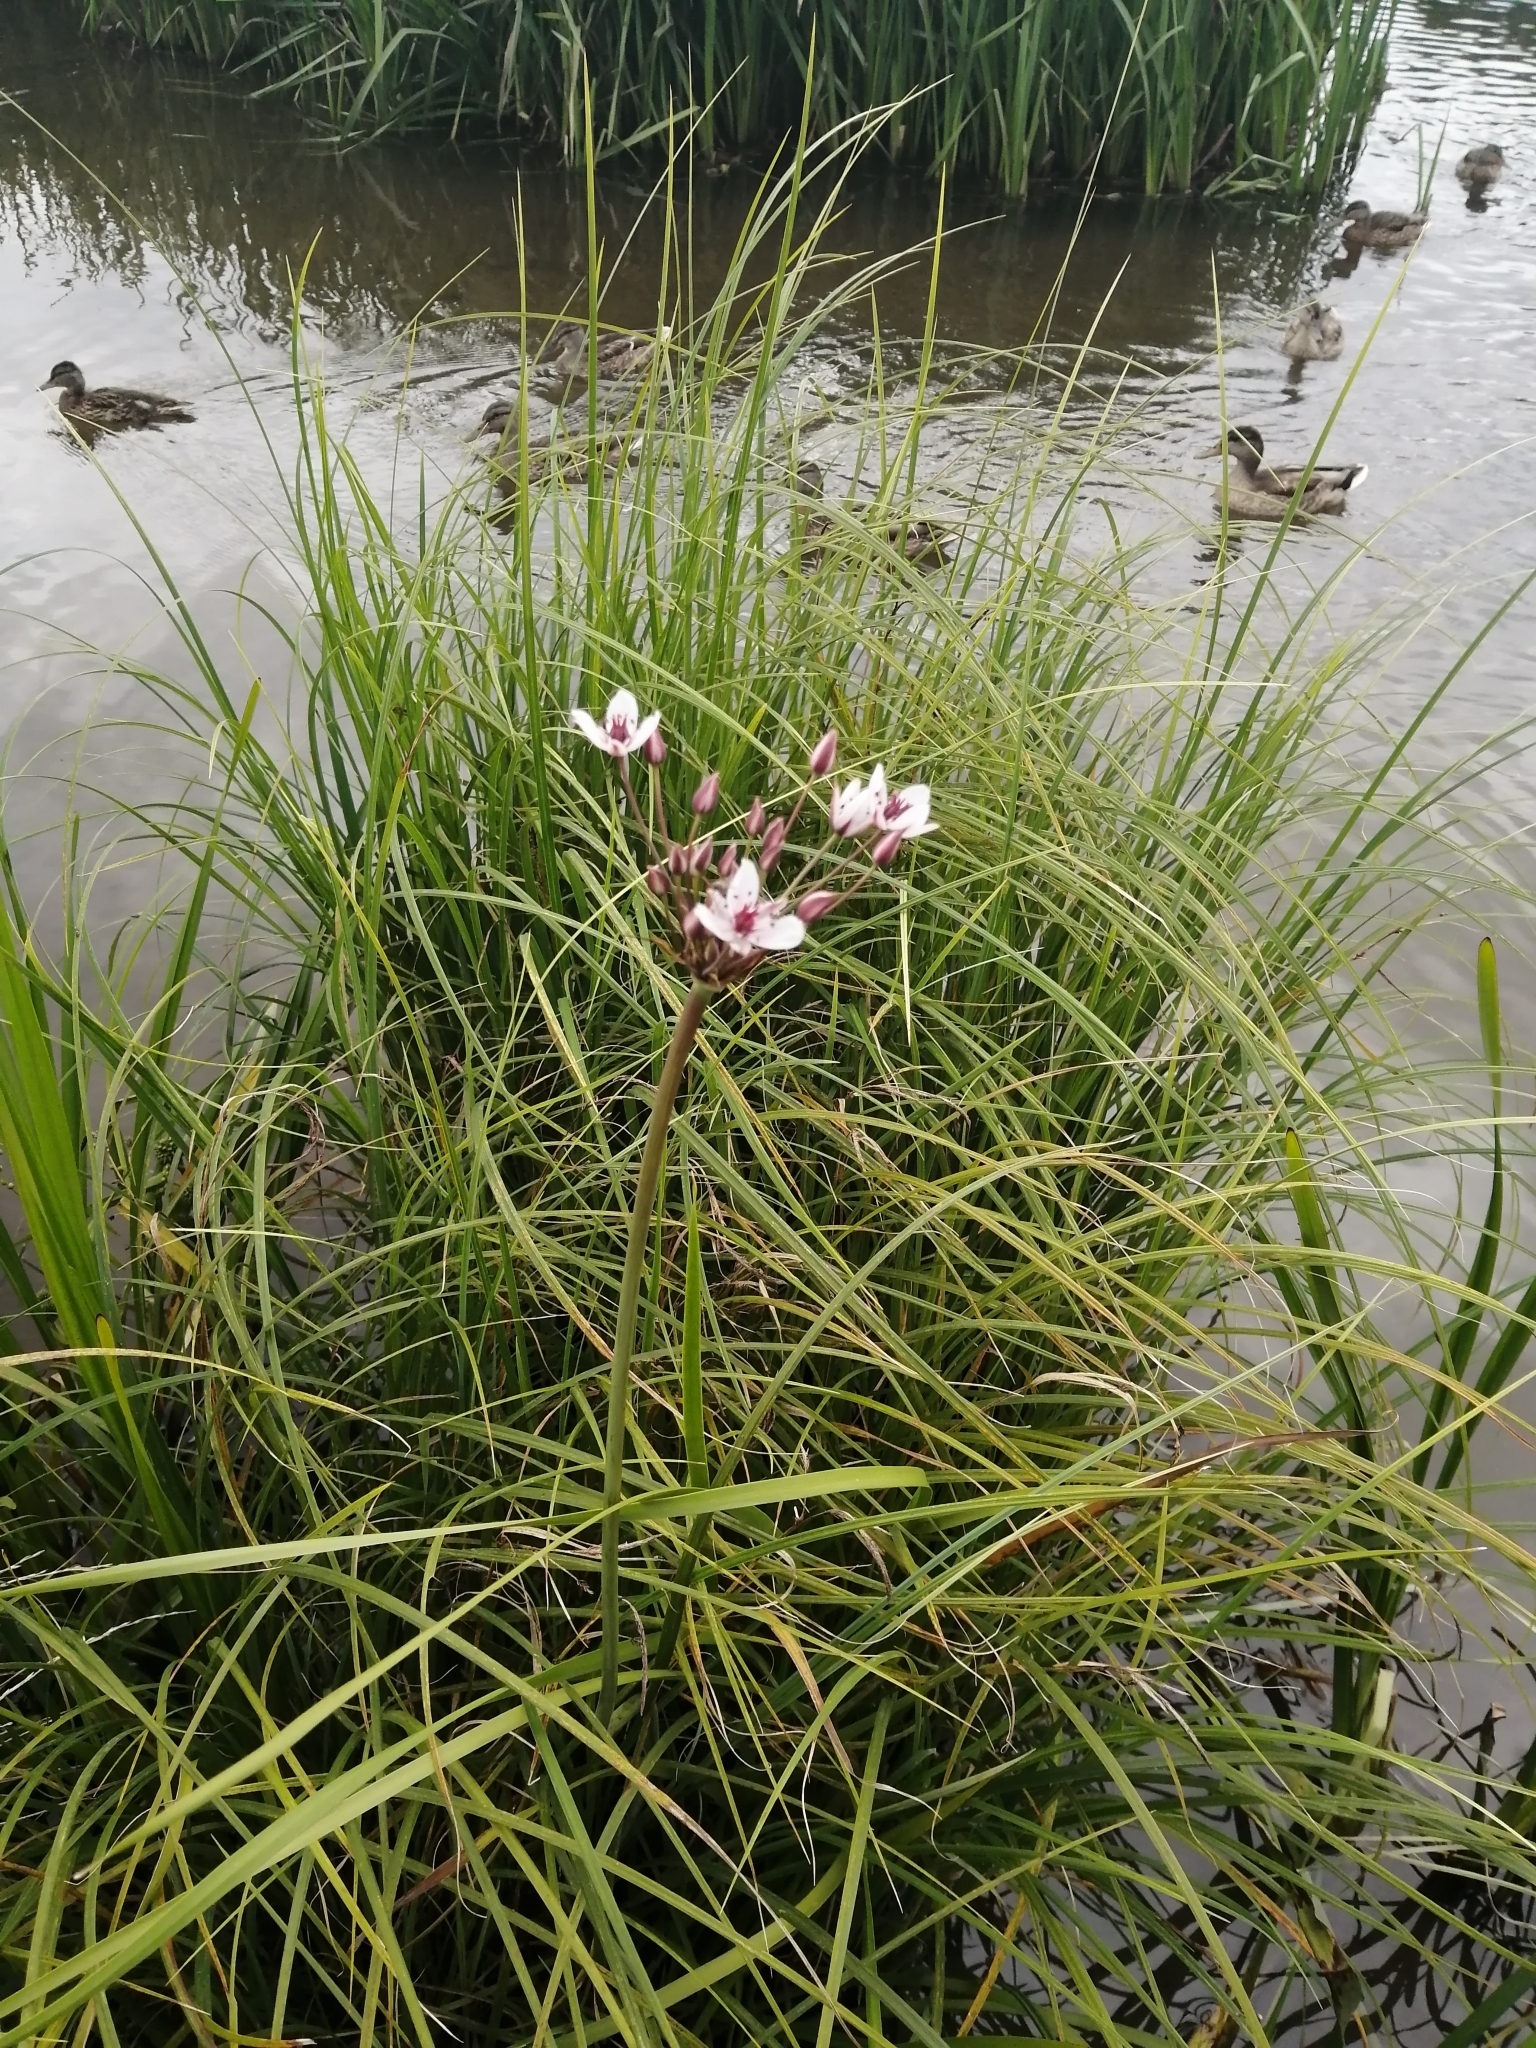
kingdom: Plantae
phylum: Tracheophyta
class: Liliopsida
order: Alismatales
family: Butomaceae
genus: Butomus
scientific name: Butomus umbellatus
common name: Flowering-rush
